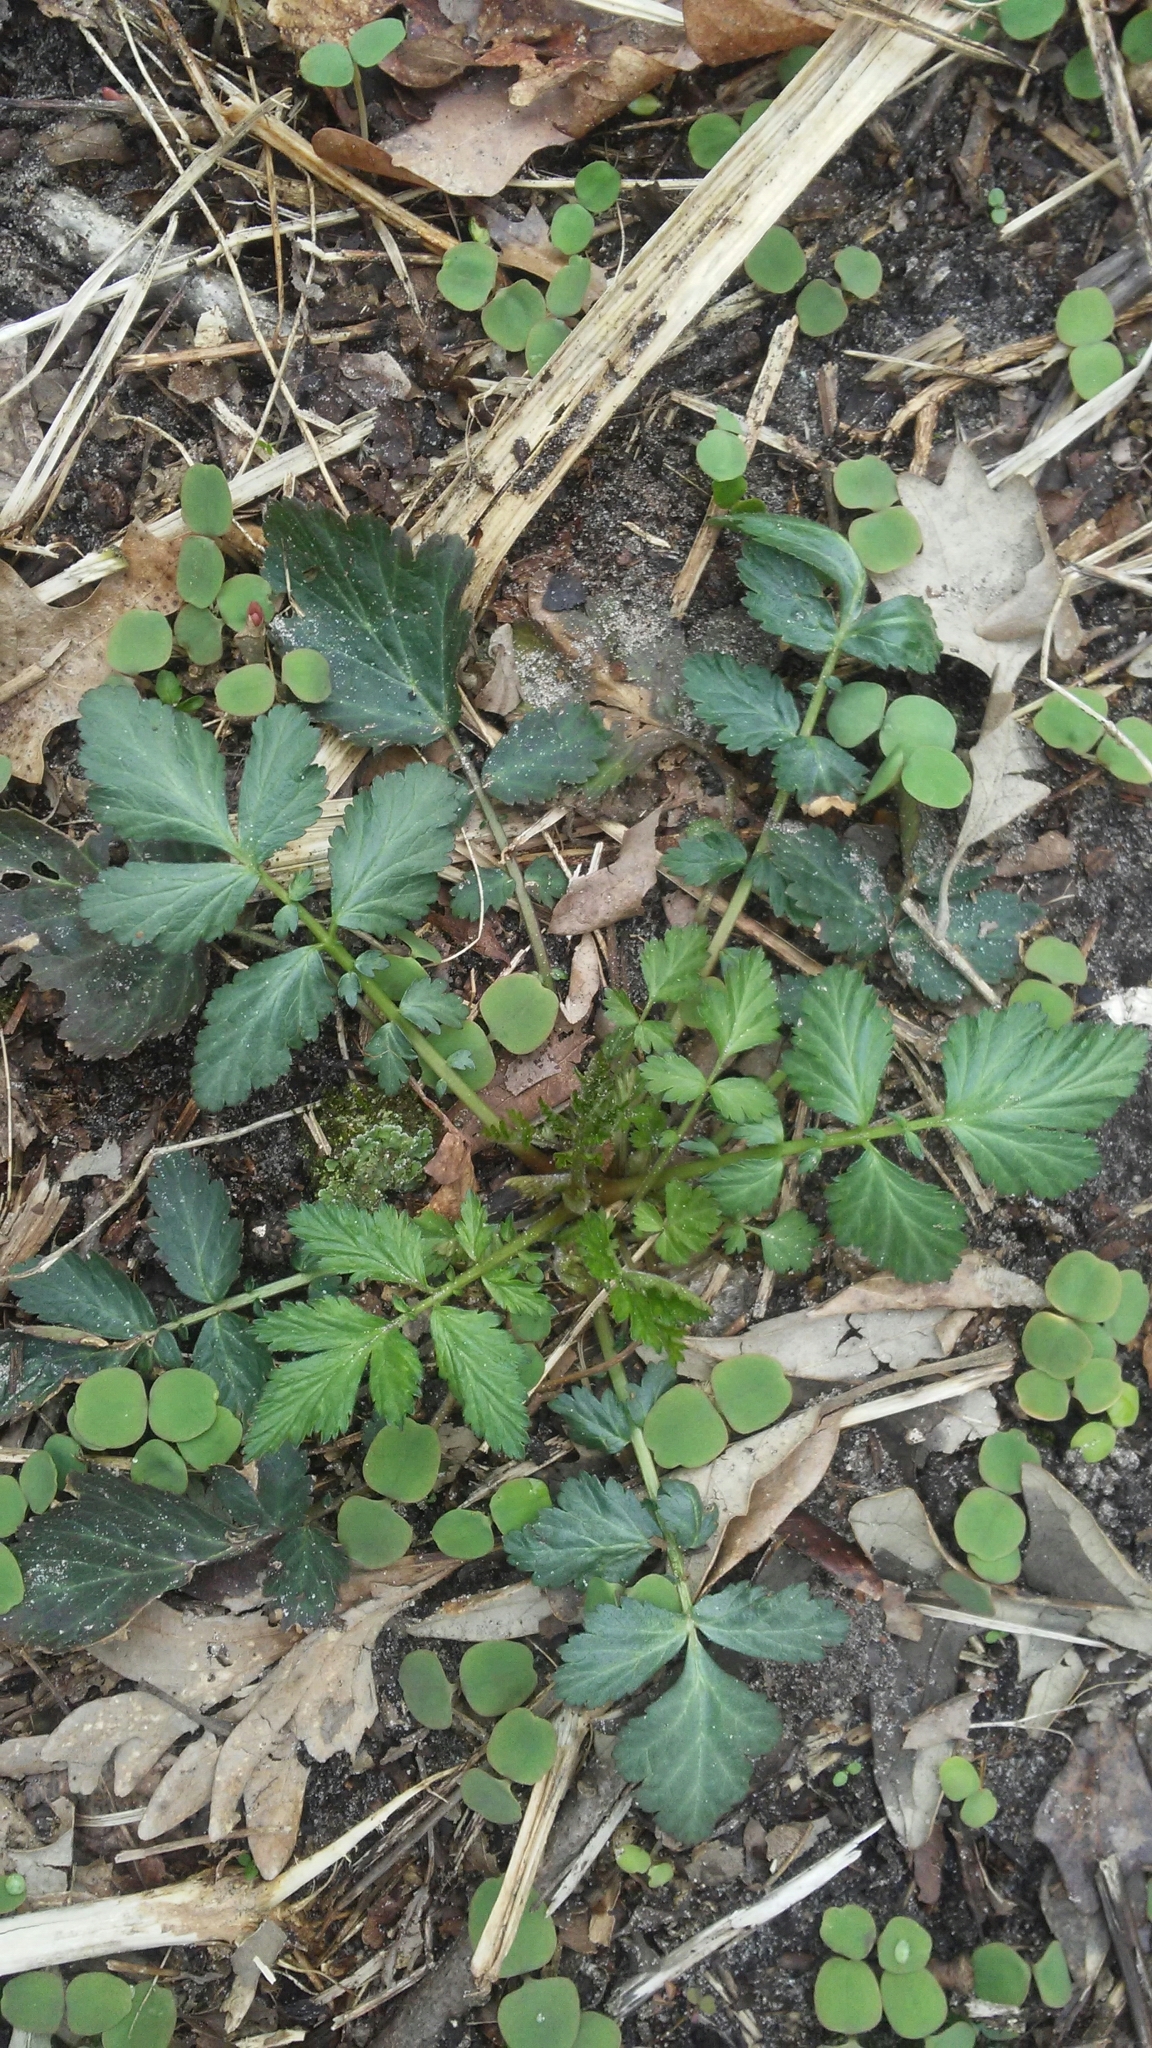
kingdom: Plantae
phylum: Tracheophyta
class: Magnoliopsida
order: Rosales
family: Rosaceae
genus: Geum
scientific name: Geum canadense
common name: White avens
